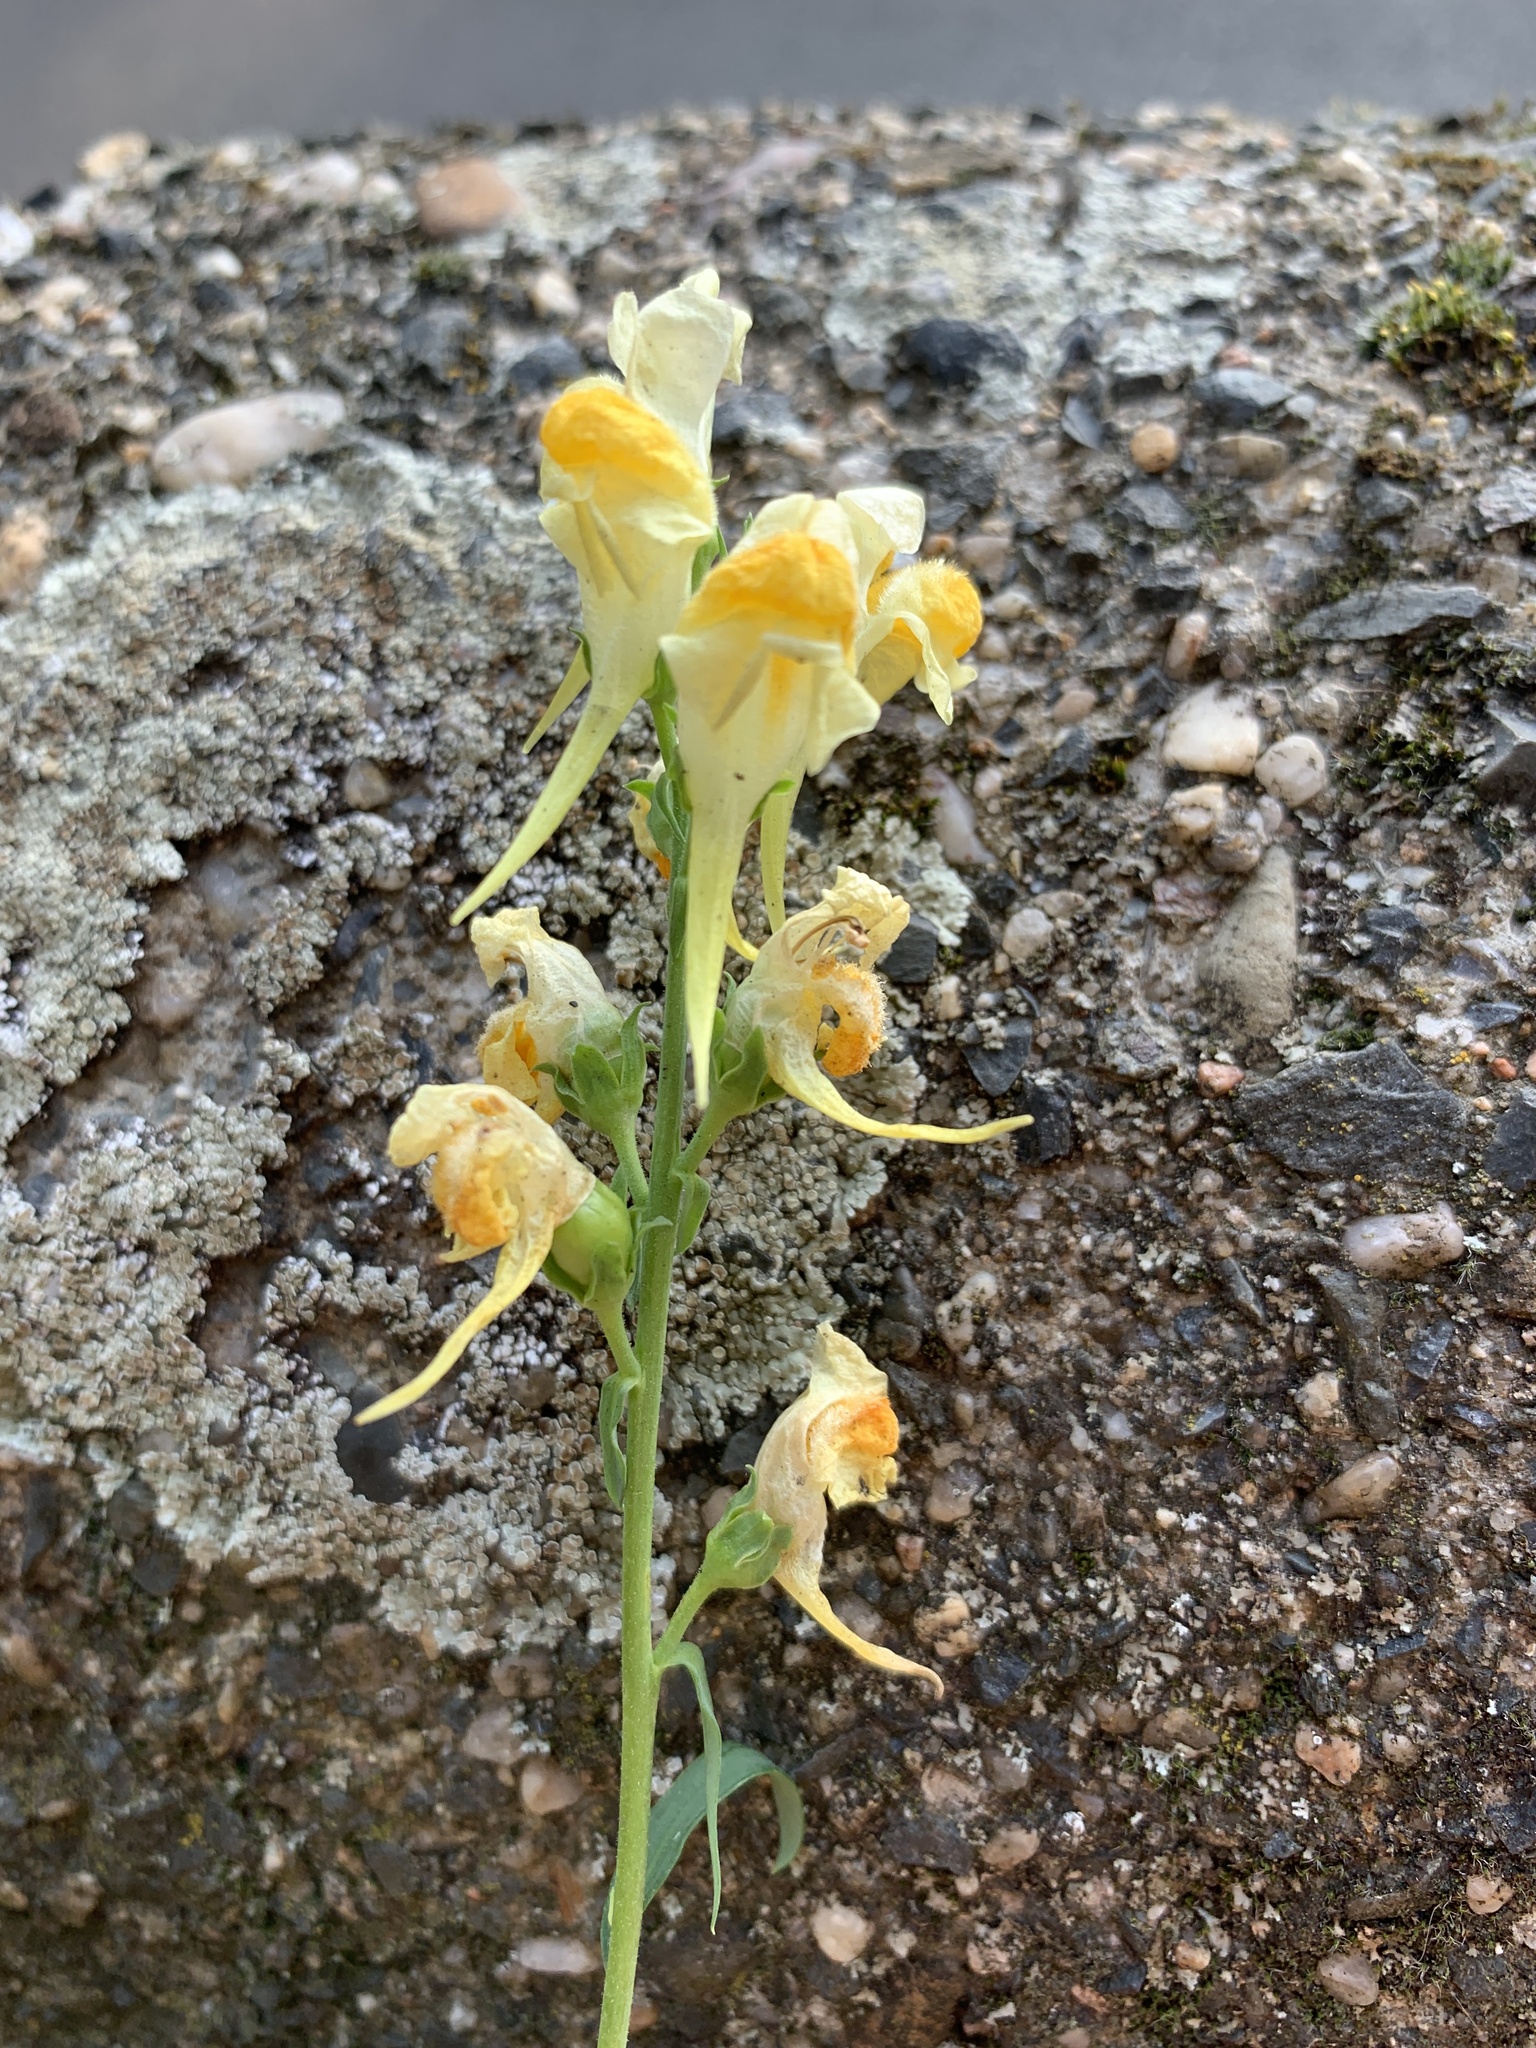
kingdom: Plantae
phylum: Tracheophyta
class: Magnoliopsida
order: Lamiales
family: Plantaginaceae
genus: Linaria
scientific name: Linaria vulgaris
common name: Butter and eggs
